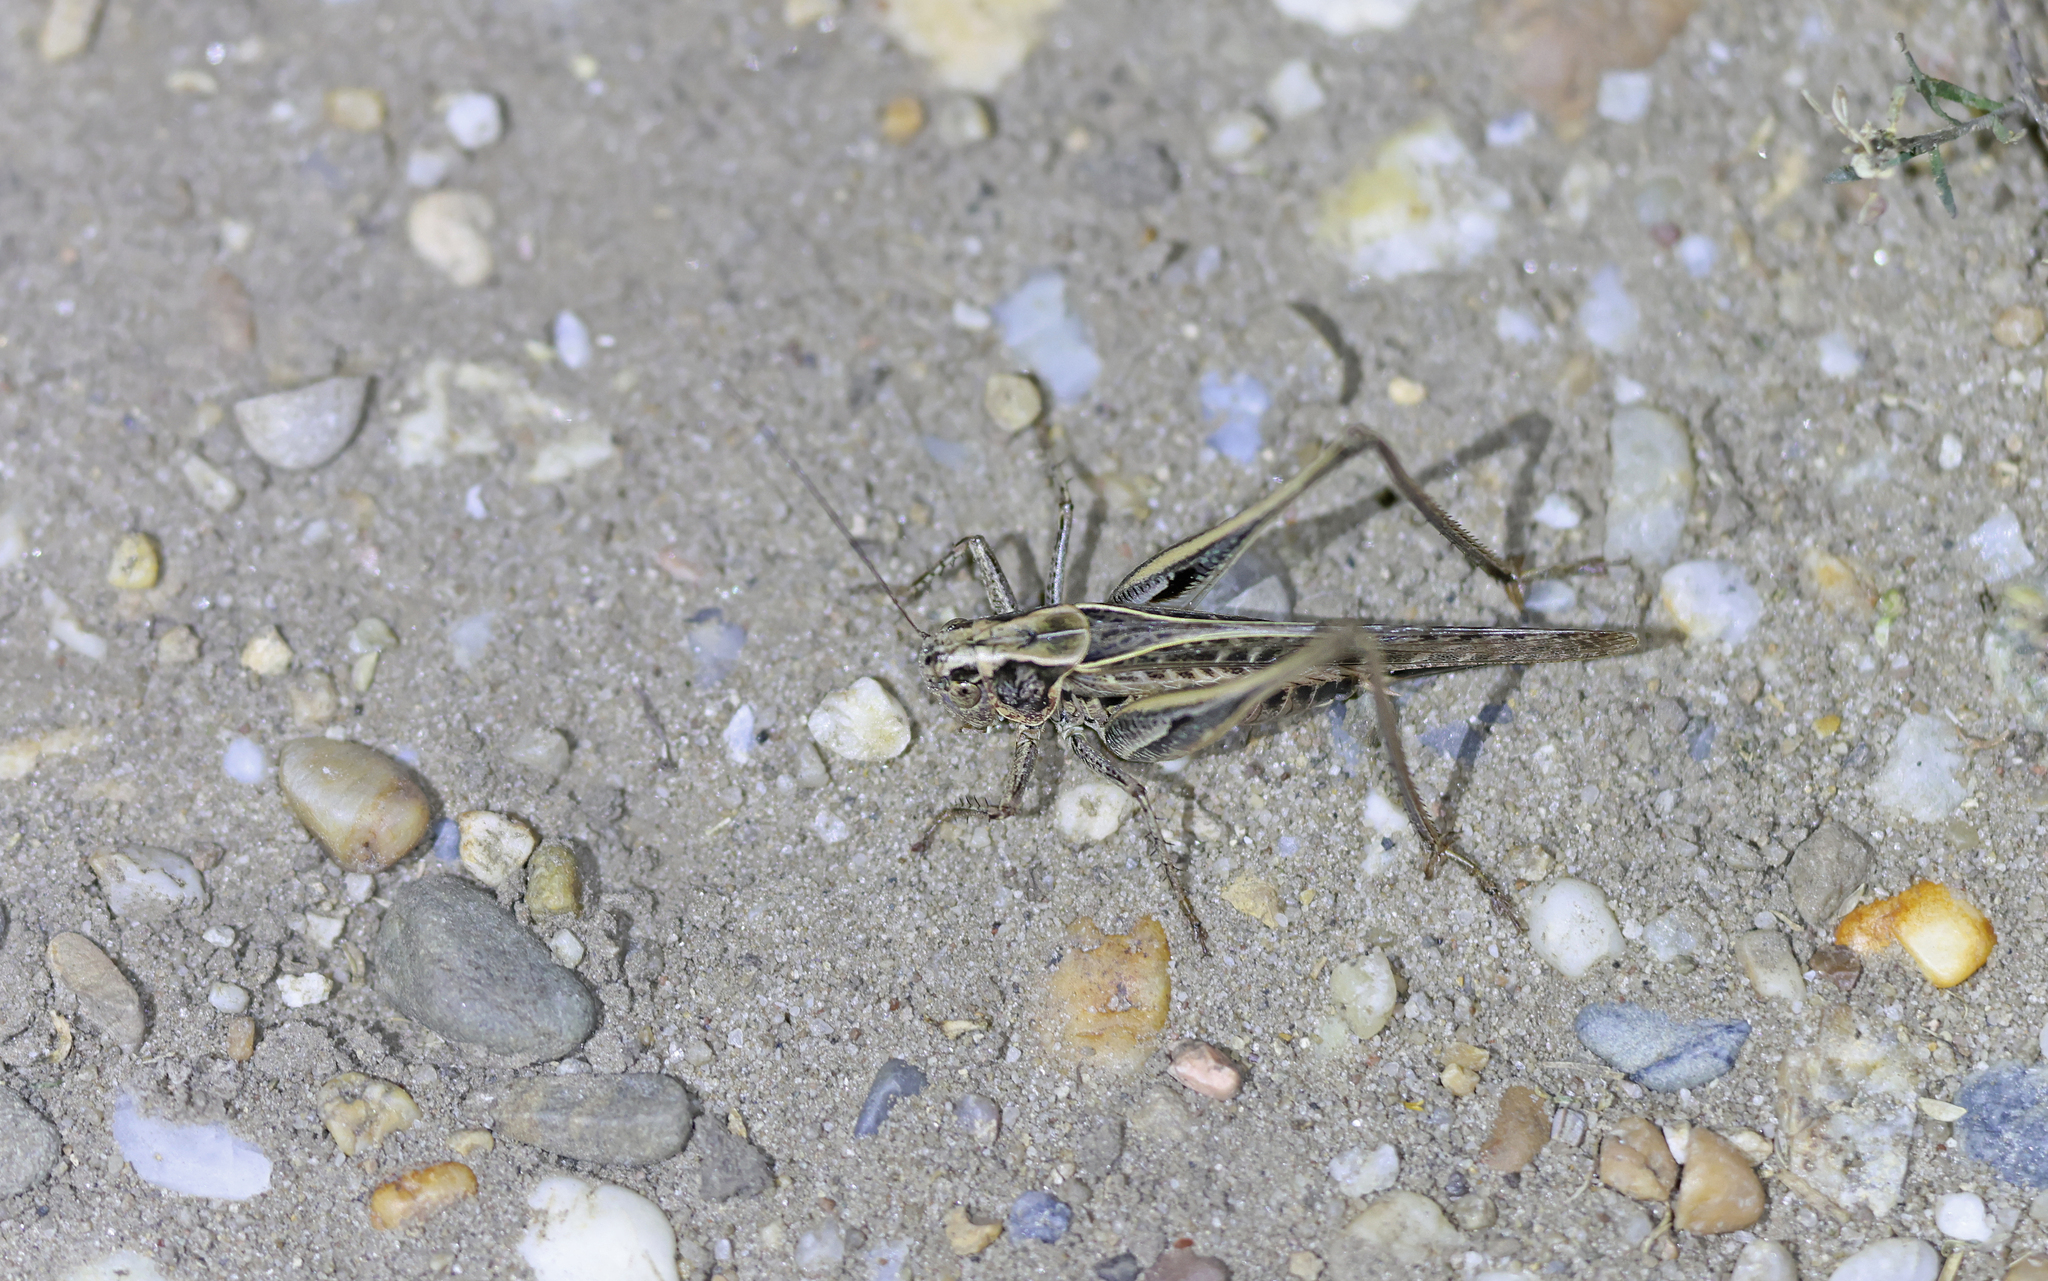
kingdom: Animalia
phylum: Arthropoda
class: Insecta
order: Orthoptera
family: Tettigoniidae
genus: Platycleis
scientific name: Platycleis affinis
